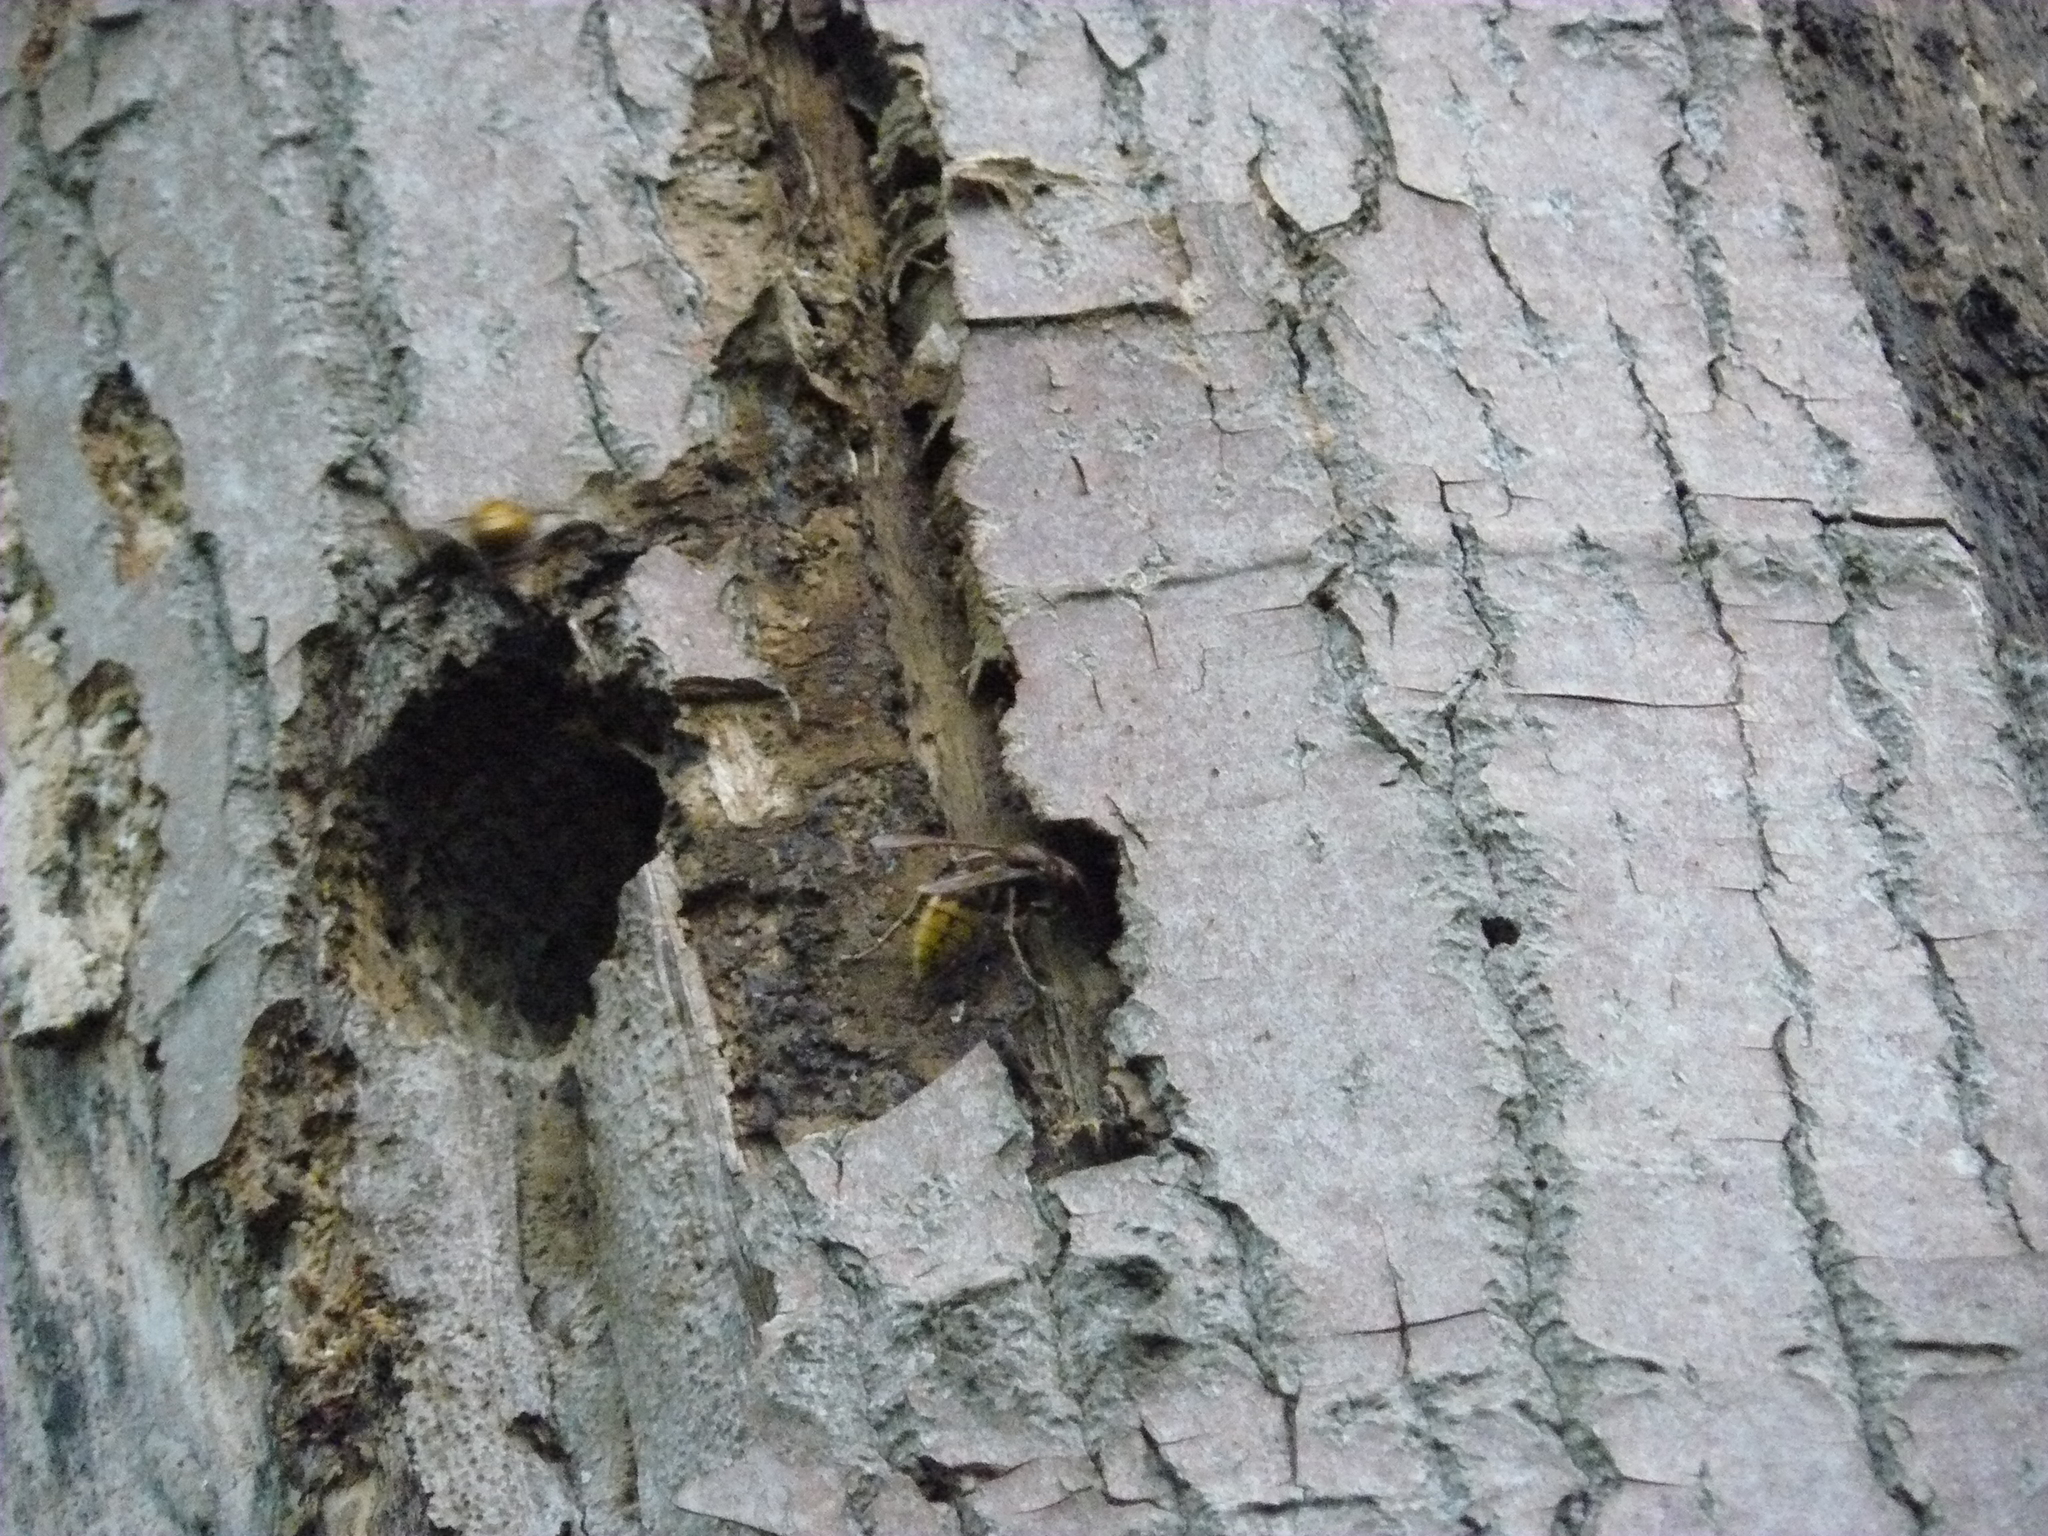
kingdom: Animalia
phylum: Arthropoda
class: Insecta
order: Hymenoptera
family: Vespidae
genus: Vespa
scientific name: Vespa crabro
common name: Hornet
